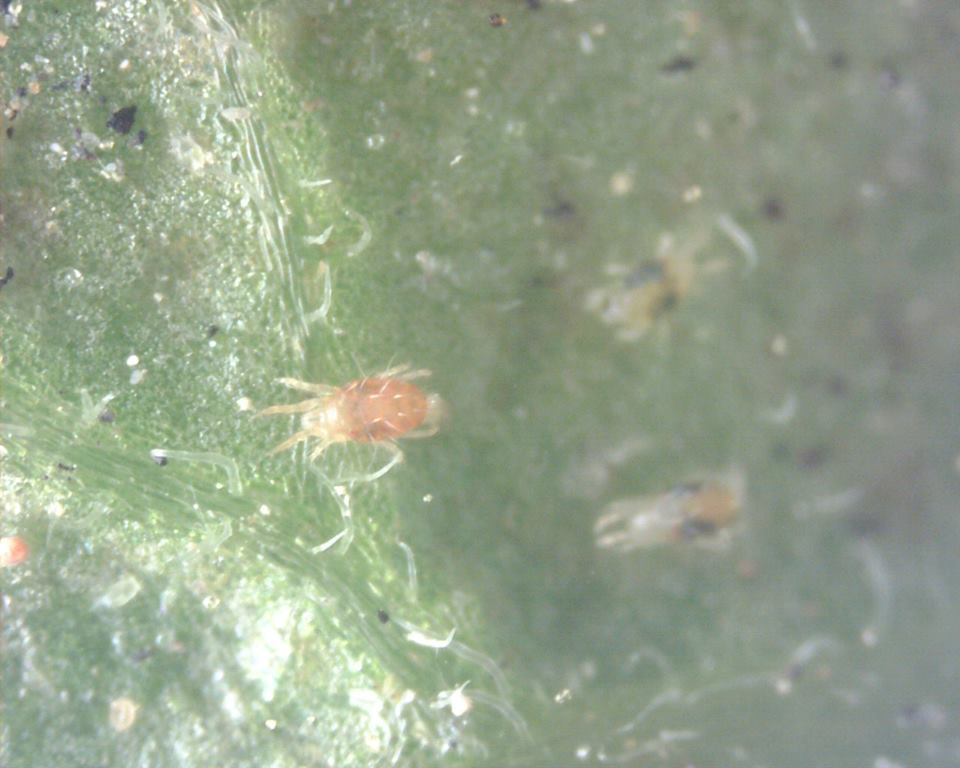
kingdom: Animalia
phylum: Arthropoda
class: Arachnida
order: Trombidiformes
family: Tetranychidae
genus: Tetranychus
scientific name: Tetranychus urticae
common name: Carmine spider mite
